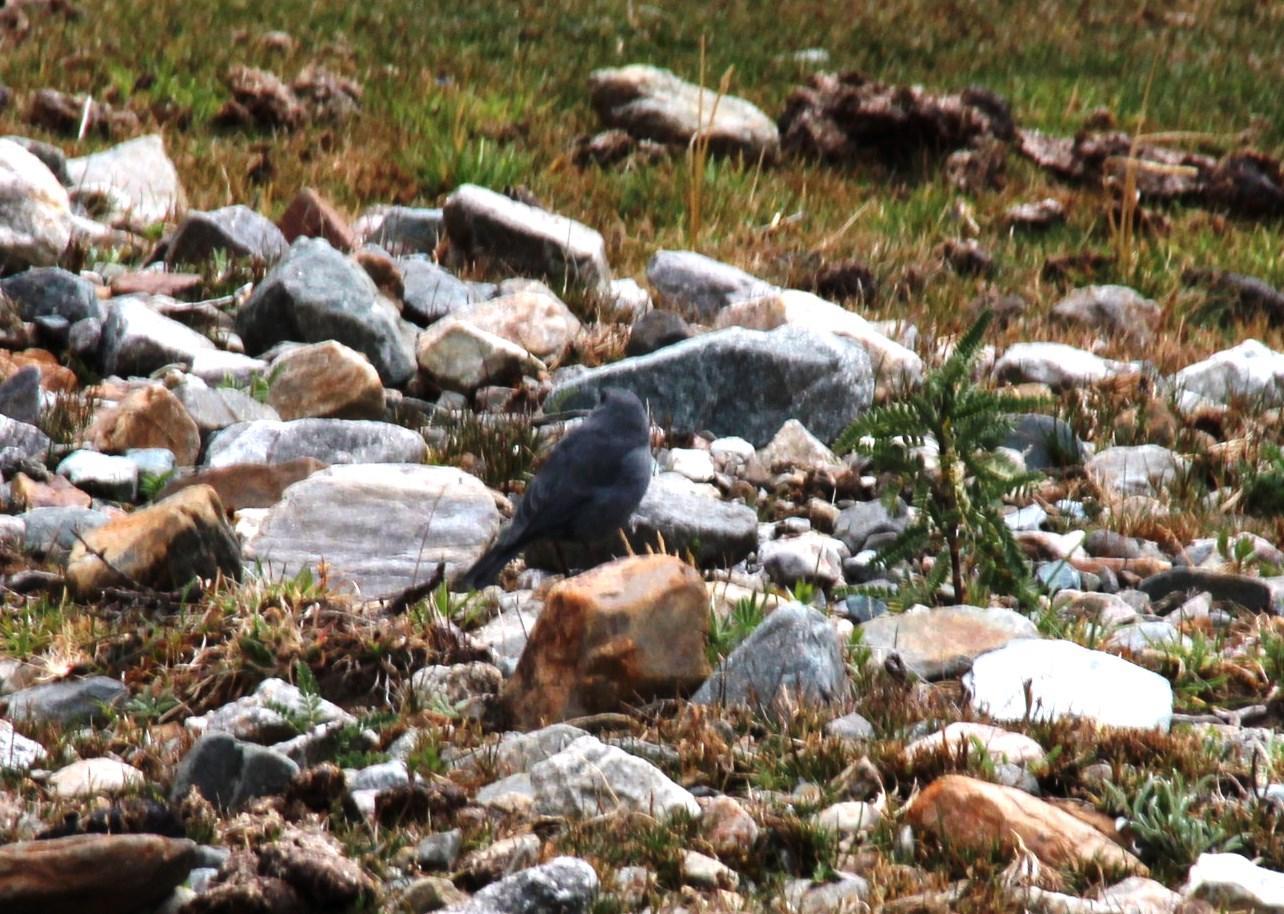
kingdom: Animalia
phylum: Chordata
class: Aves
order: Passeriformes
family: Thraupidae
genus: Geospizopsis
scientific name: Geospizopsis unicolor
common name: Plumbeous sierra-finch
